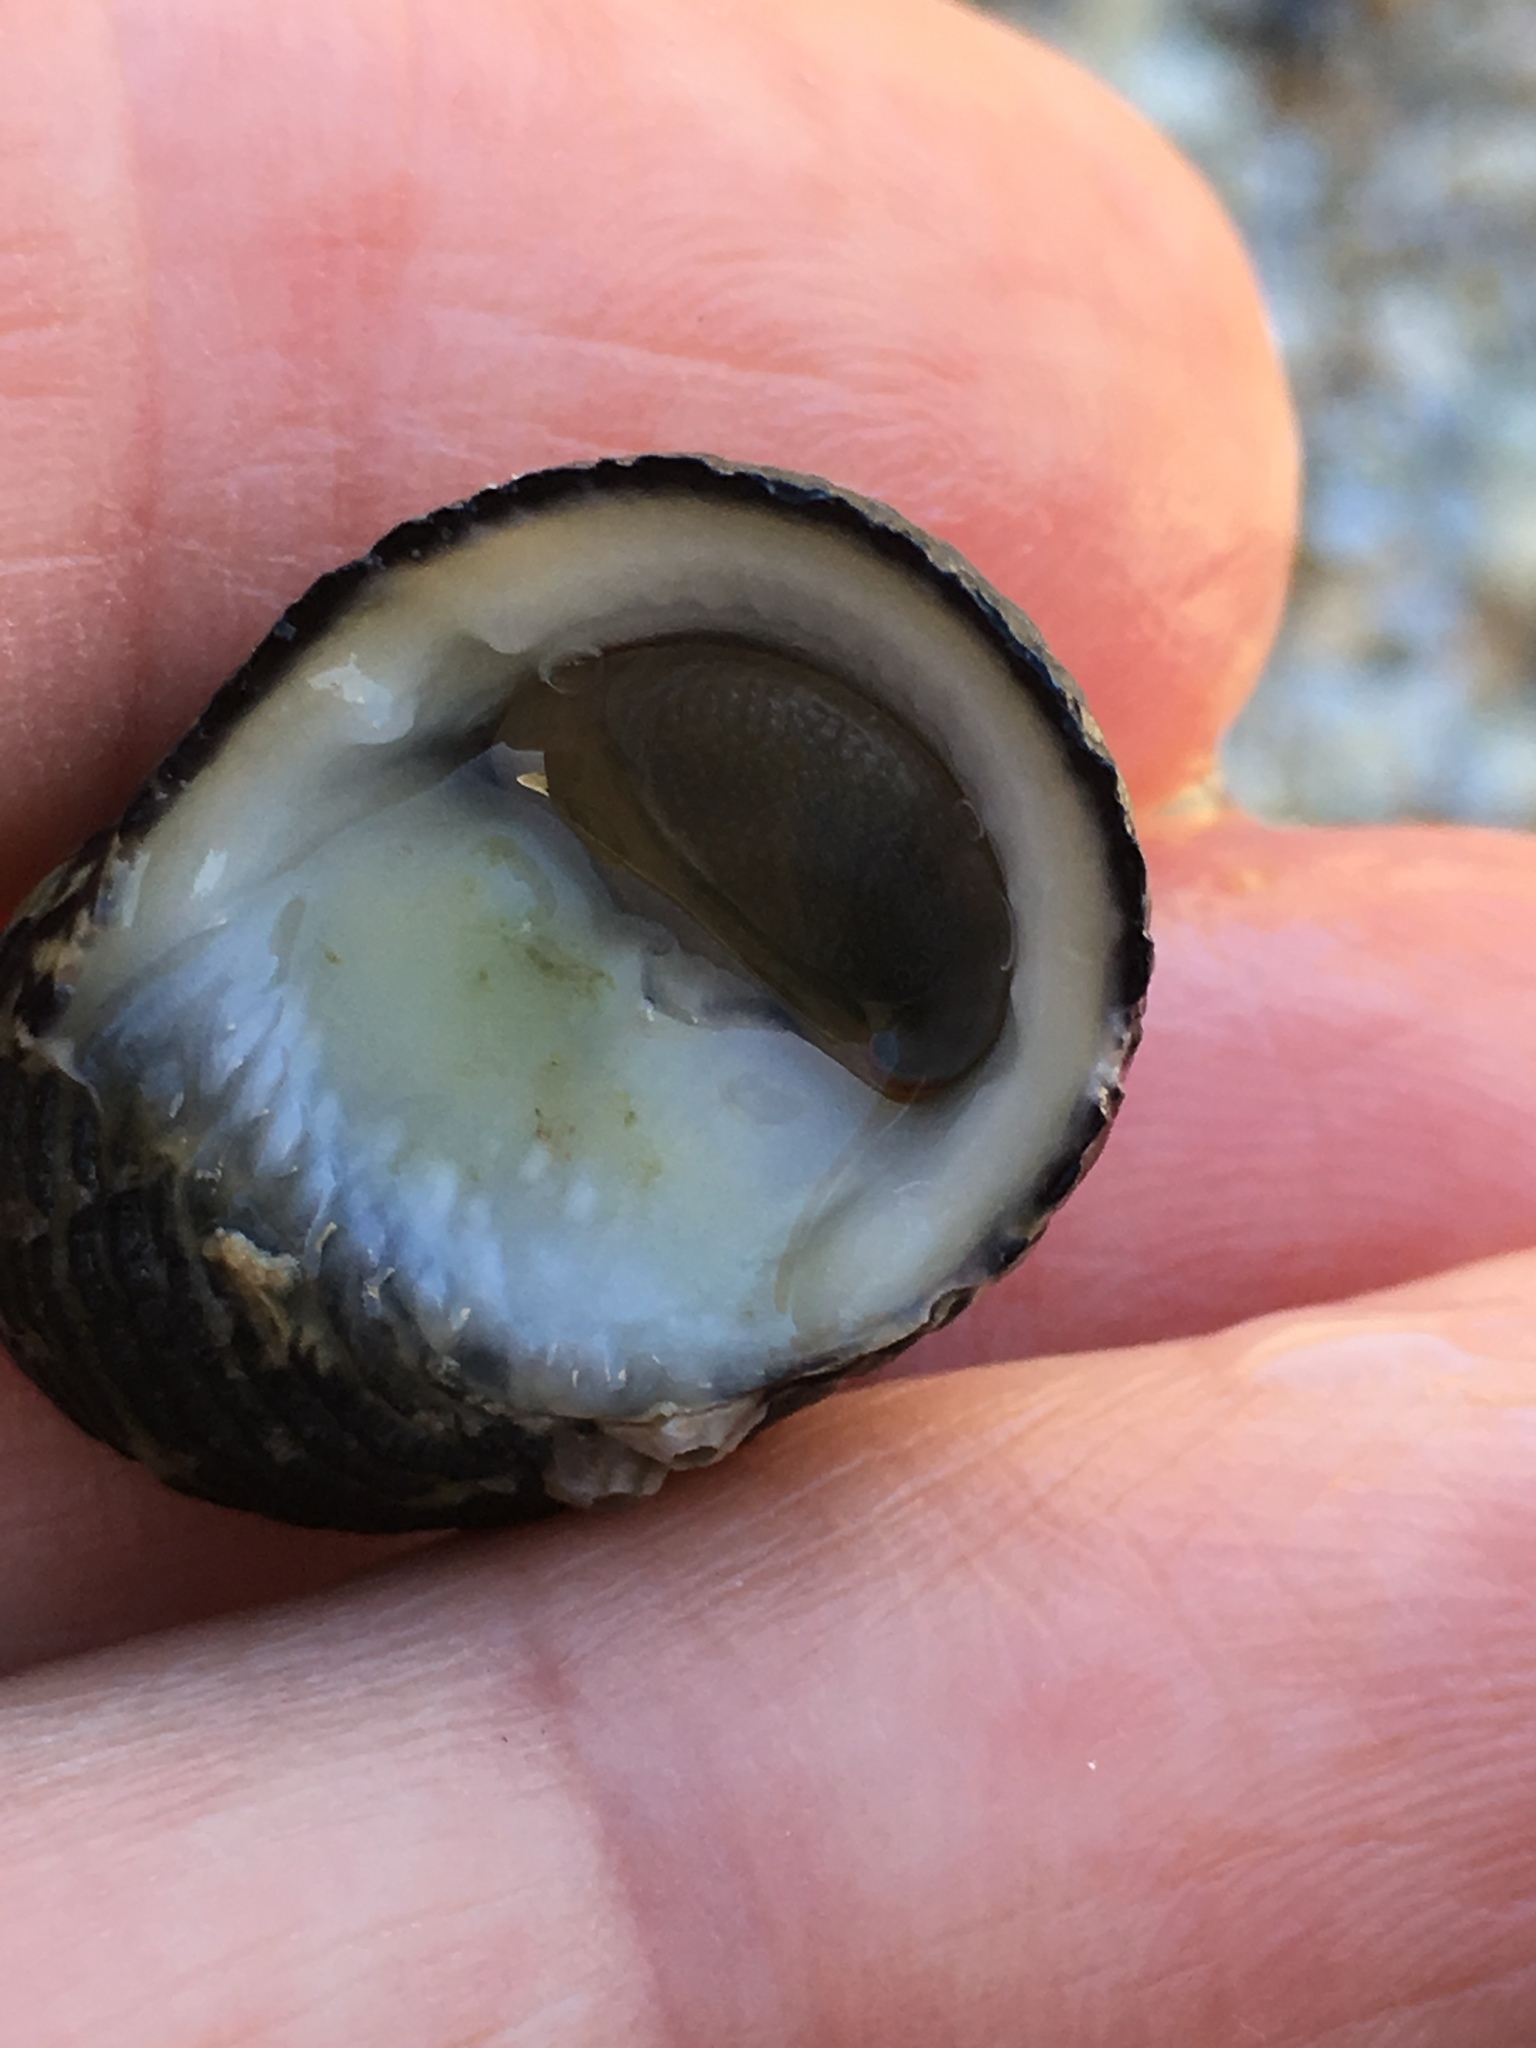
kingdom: Animalia
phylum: Mollusca
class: Gastropoda
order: Cycloneritida
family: Neritidae
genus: Nerita
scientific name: Nerita tessellata
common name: Checkered nerite
